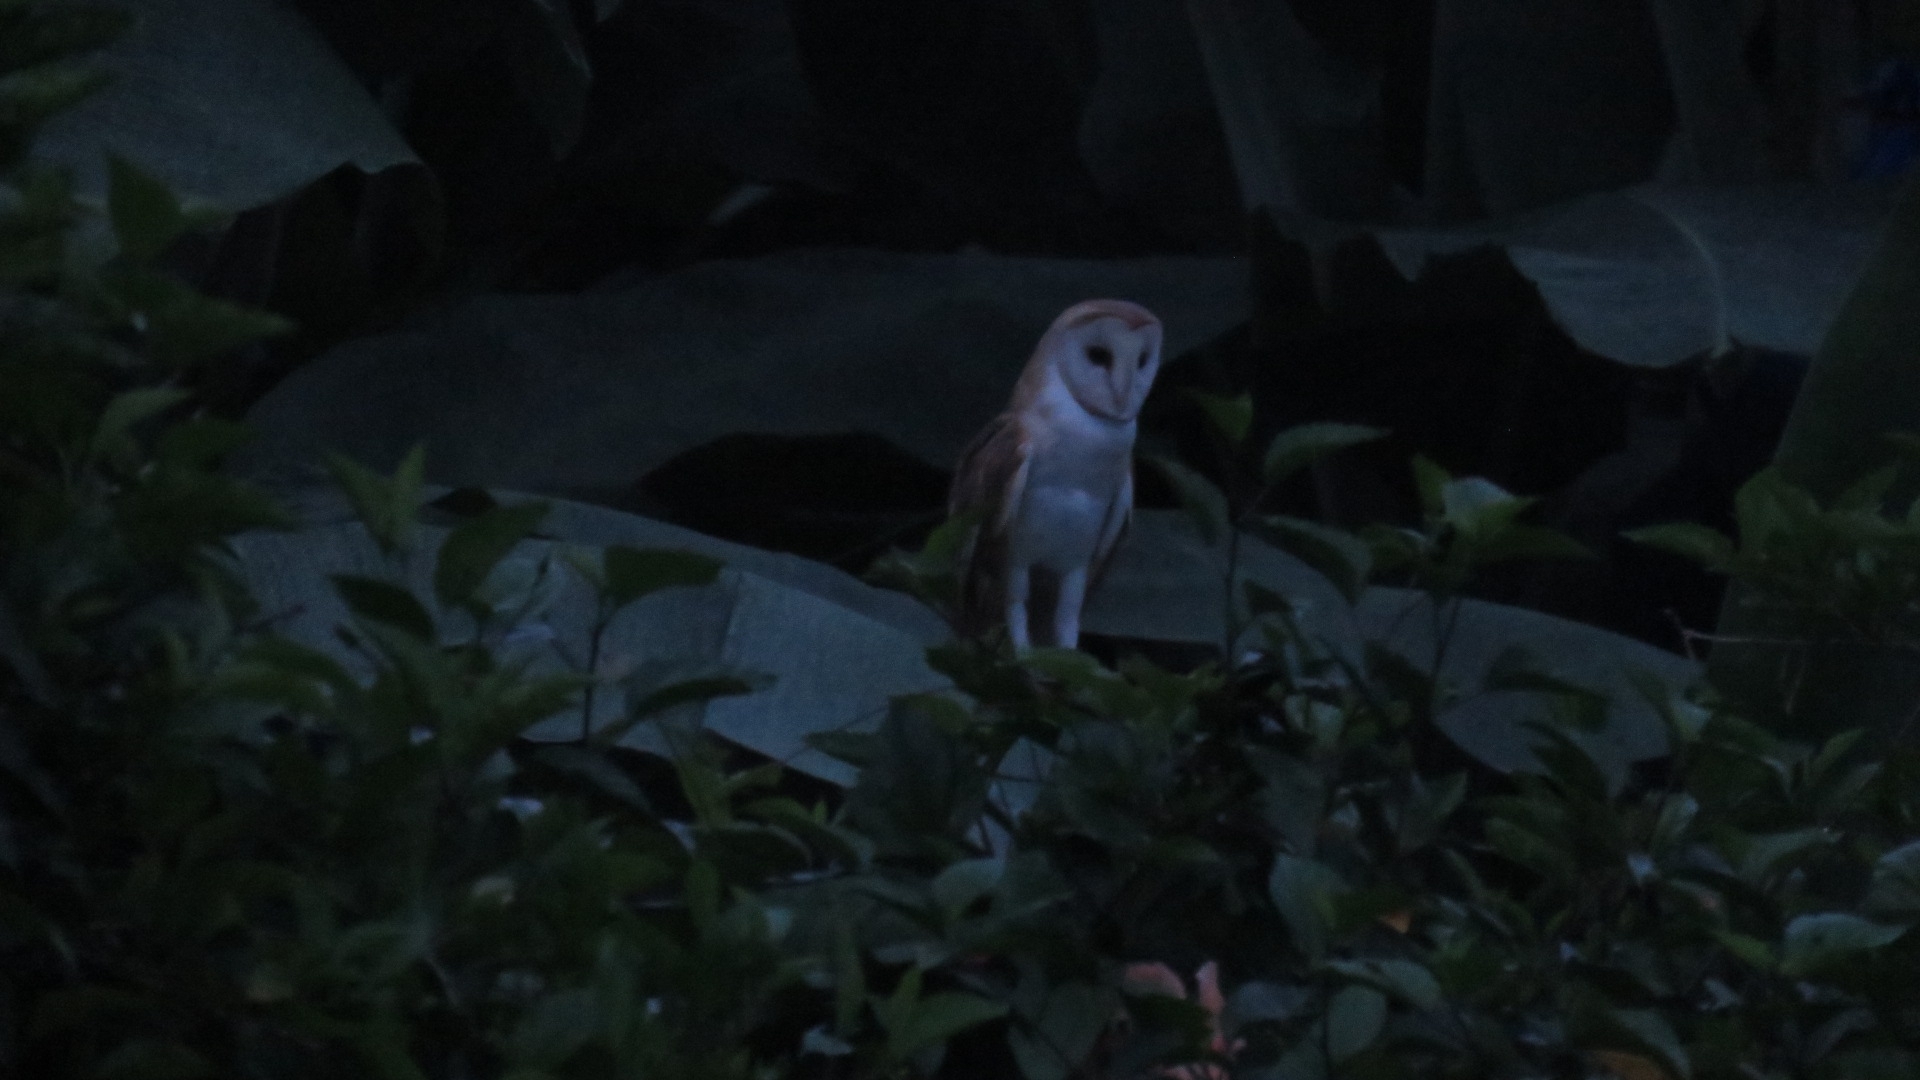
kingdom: Animalia
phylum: Chordata
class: Aves
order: Strigiformes
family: Tytonidae
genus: Tyto
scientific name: Tyto alba
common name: Barn owl
